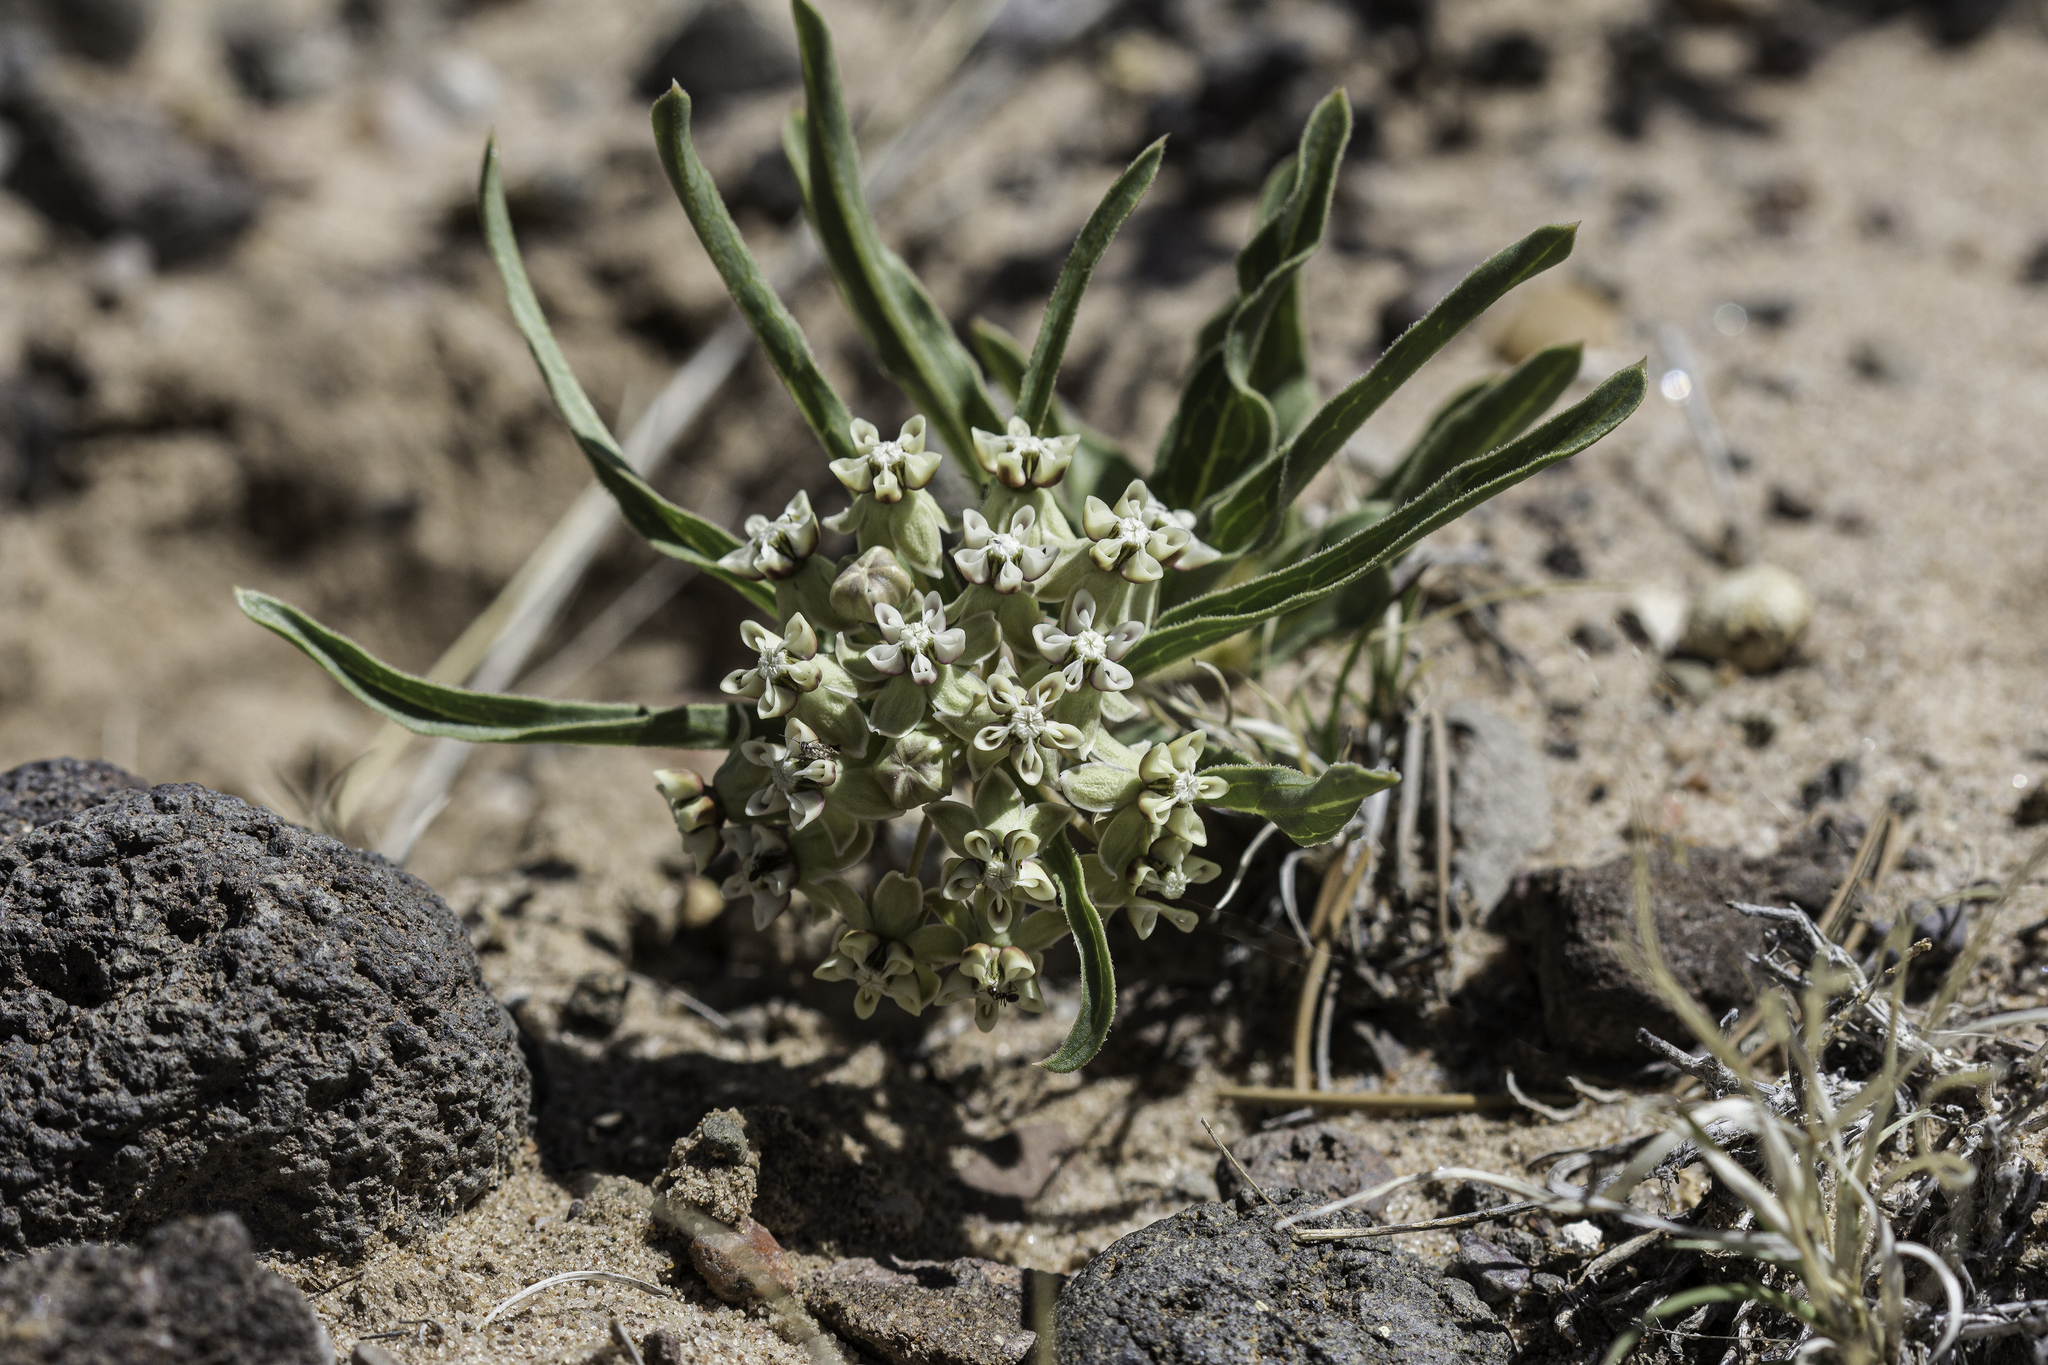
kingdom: Plantae
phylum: Tracheophyta
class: Magnoliopsida
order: Gentianales
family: Apocynaceae
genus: Asclepias
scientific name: Asclepias involucrata
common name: Dwarf milkweed
